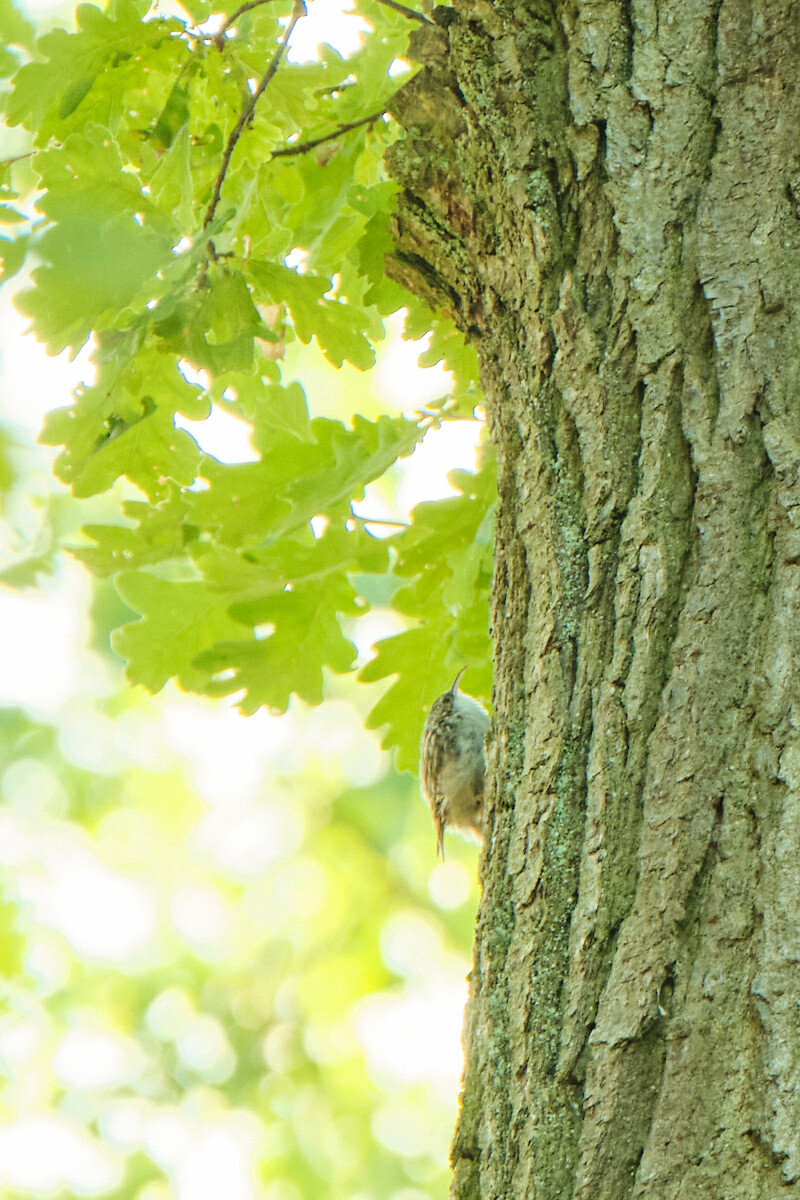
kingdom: Animalia
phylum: Chordata
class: Aves
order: Passeriformes
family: Certhiidae
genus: Certhia
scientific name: Certhia brachydactyla
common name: Short-toed treecreeper
